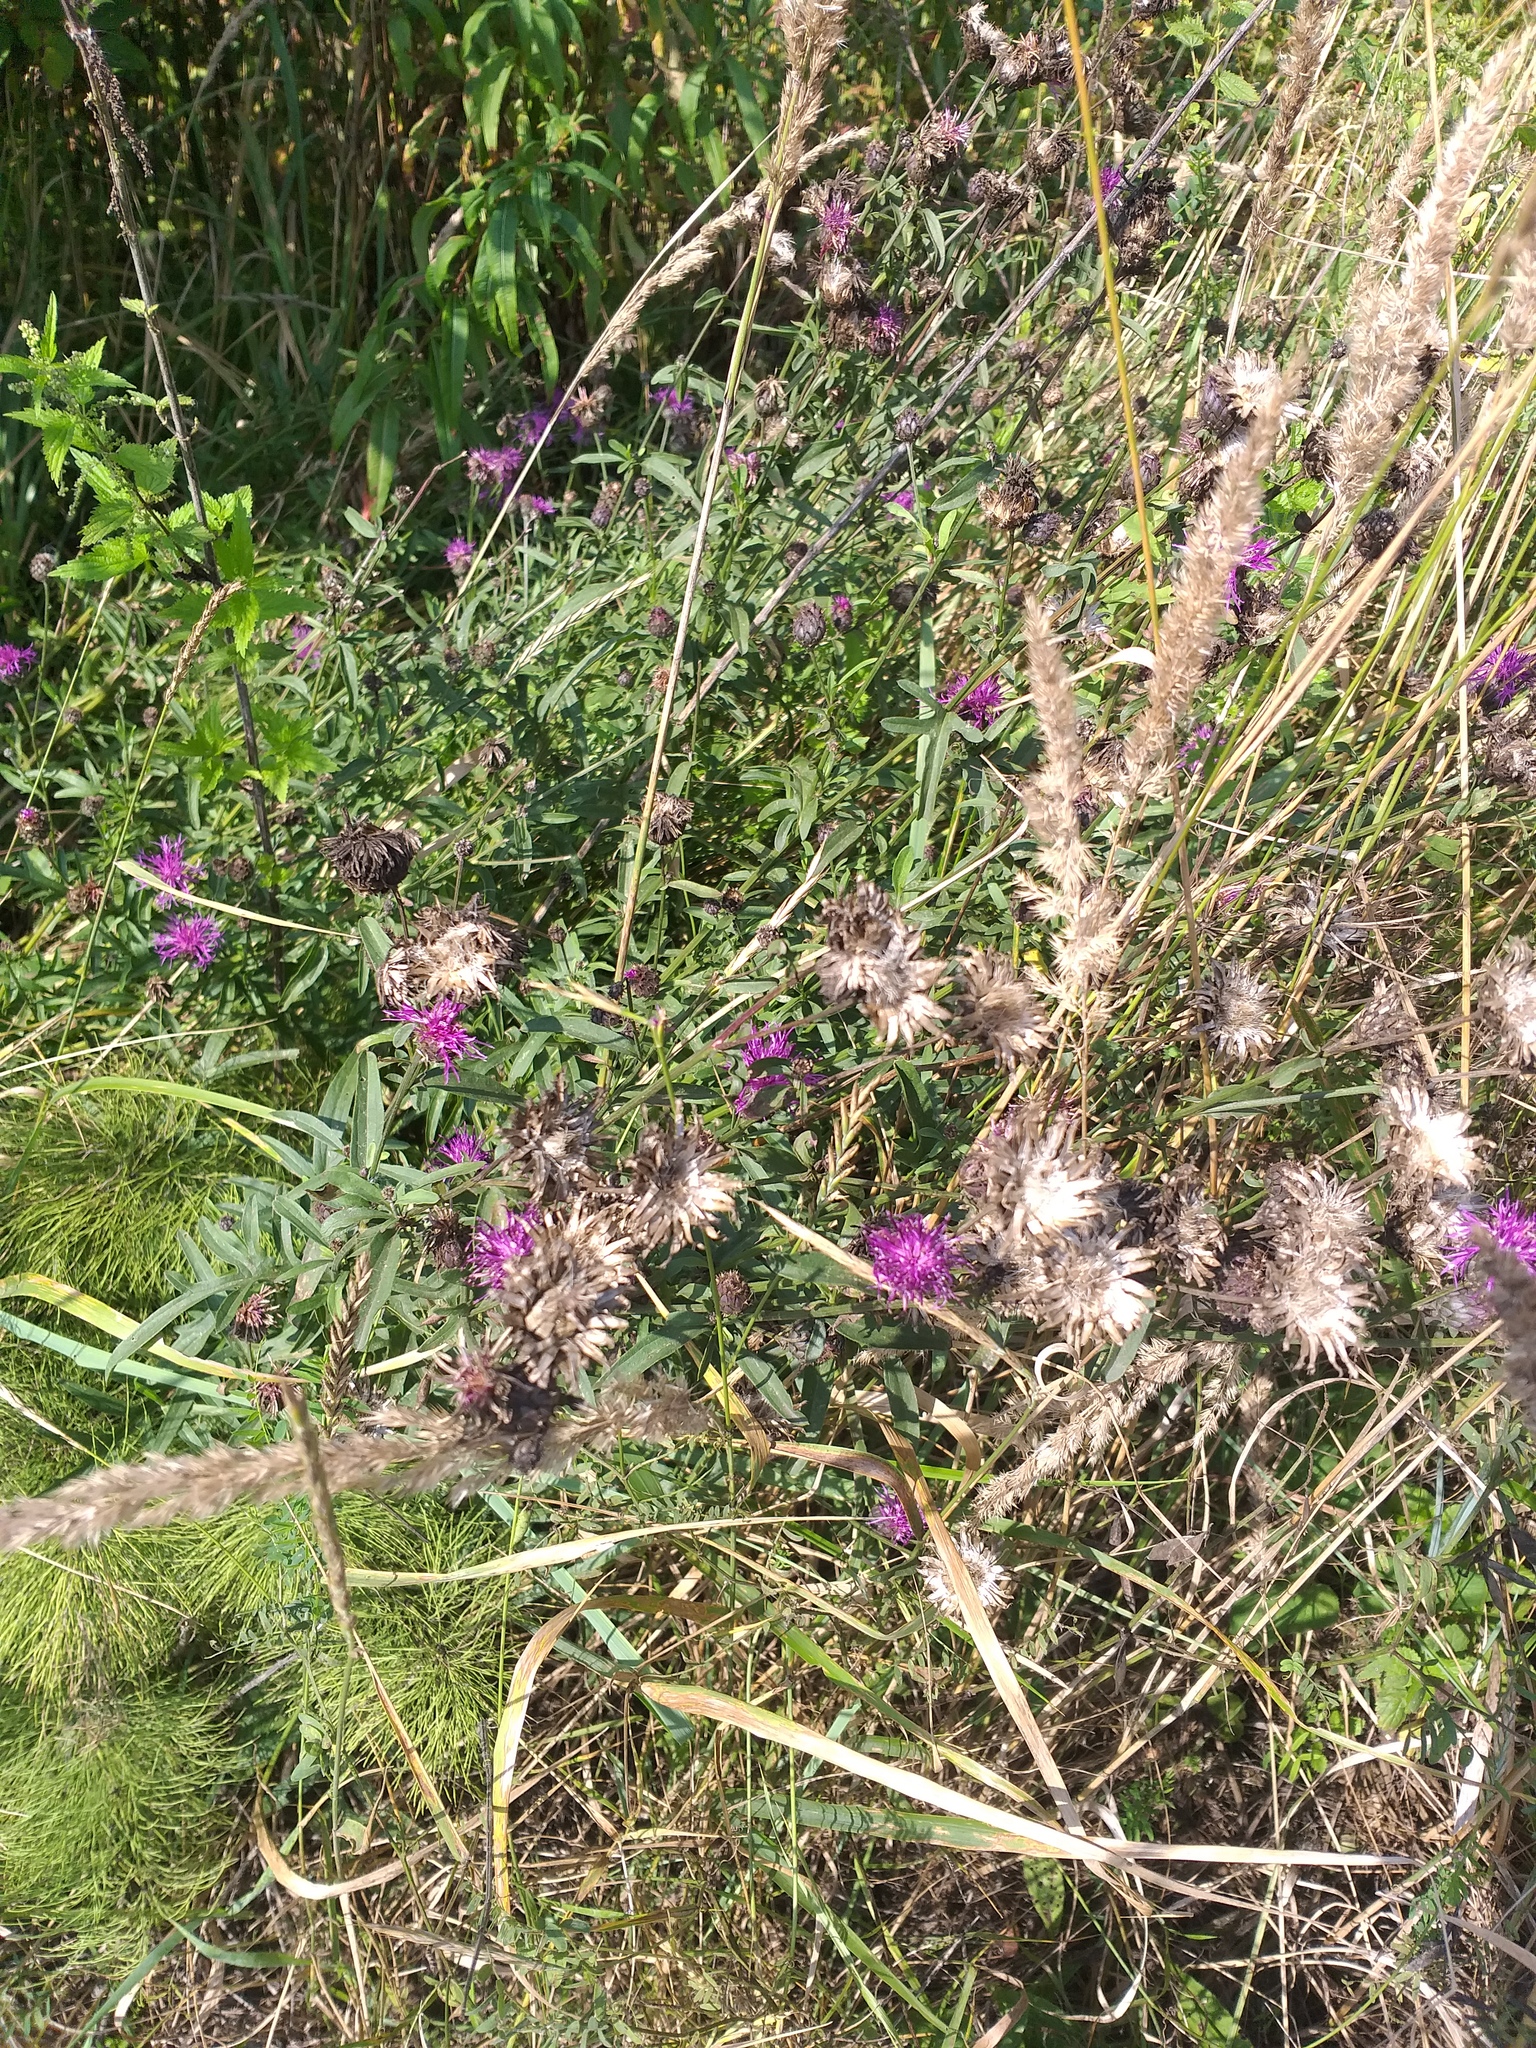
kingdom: Plantae
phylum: Tracheophyta
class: Magnoliopsida
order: Asterales
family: Asteraceae
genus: Centaurea
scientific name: Centaurea scabiosa
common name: Greater knapweed
